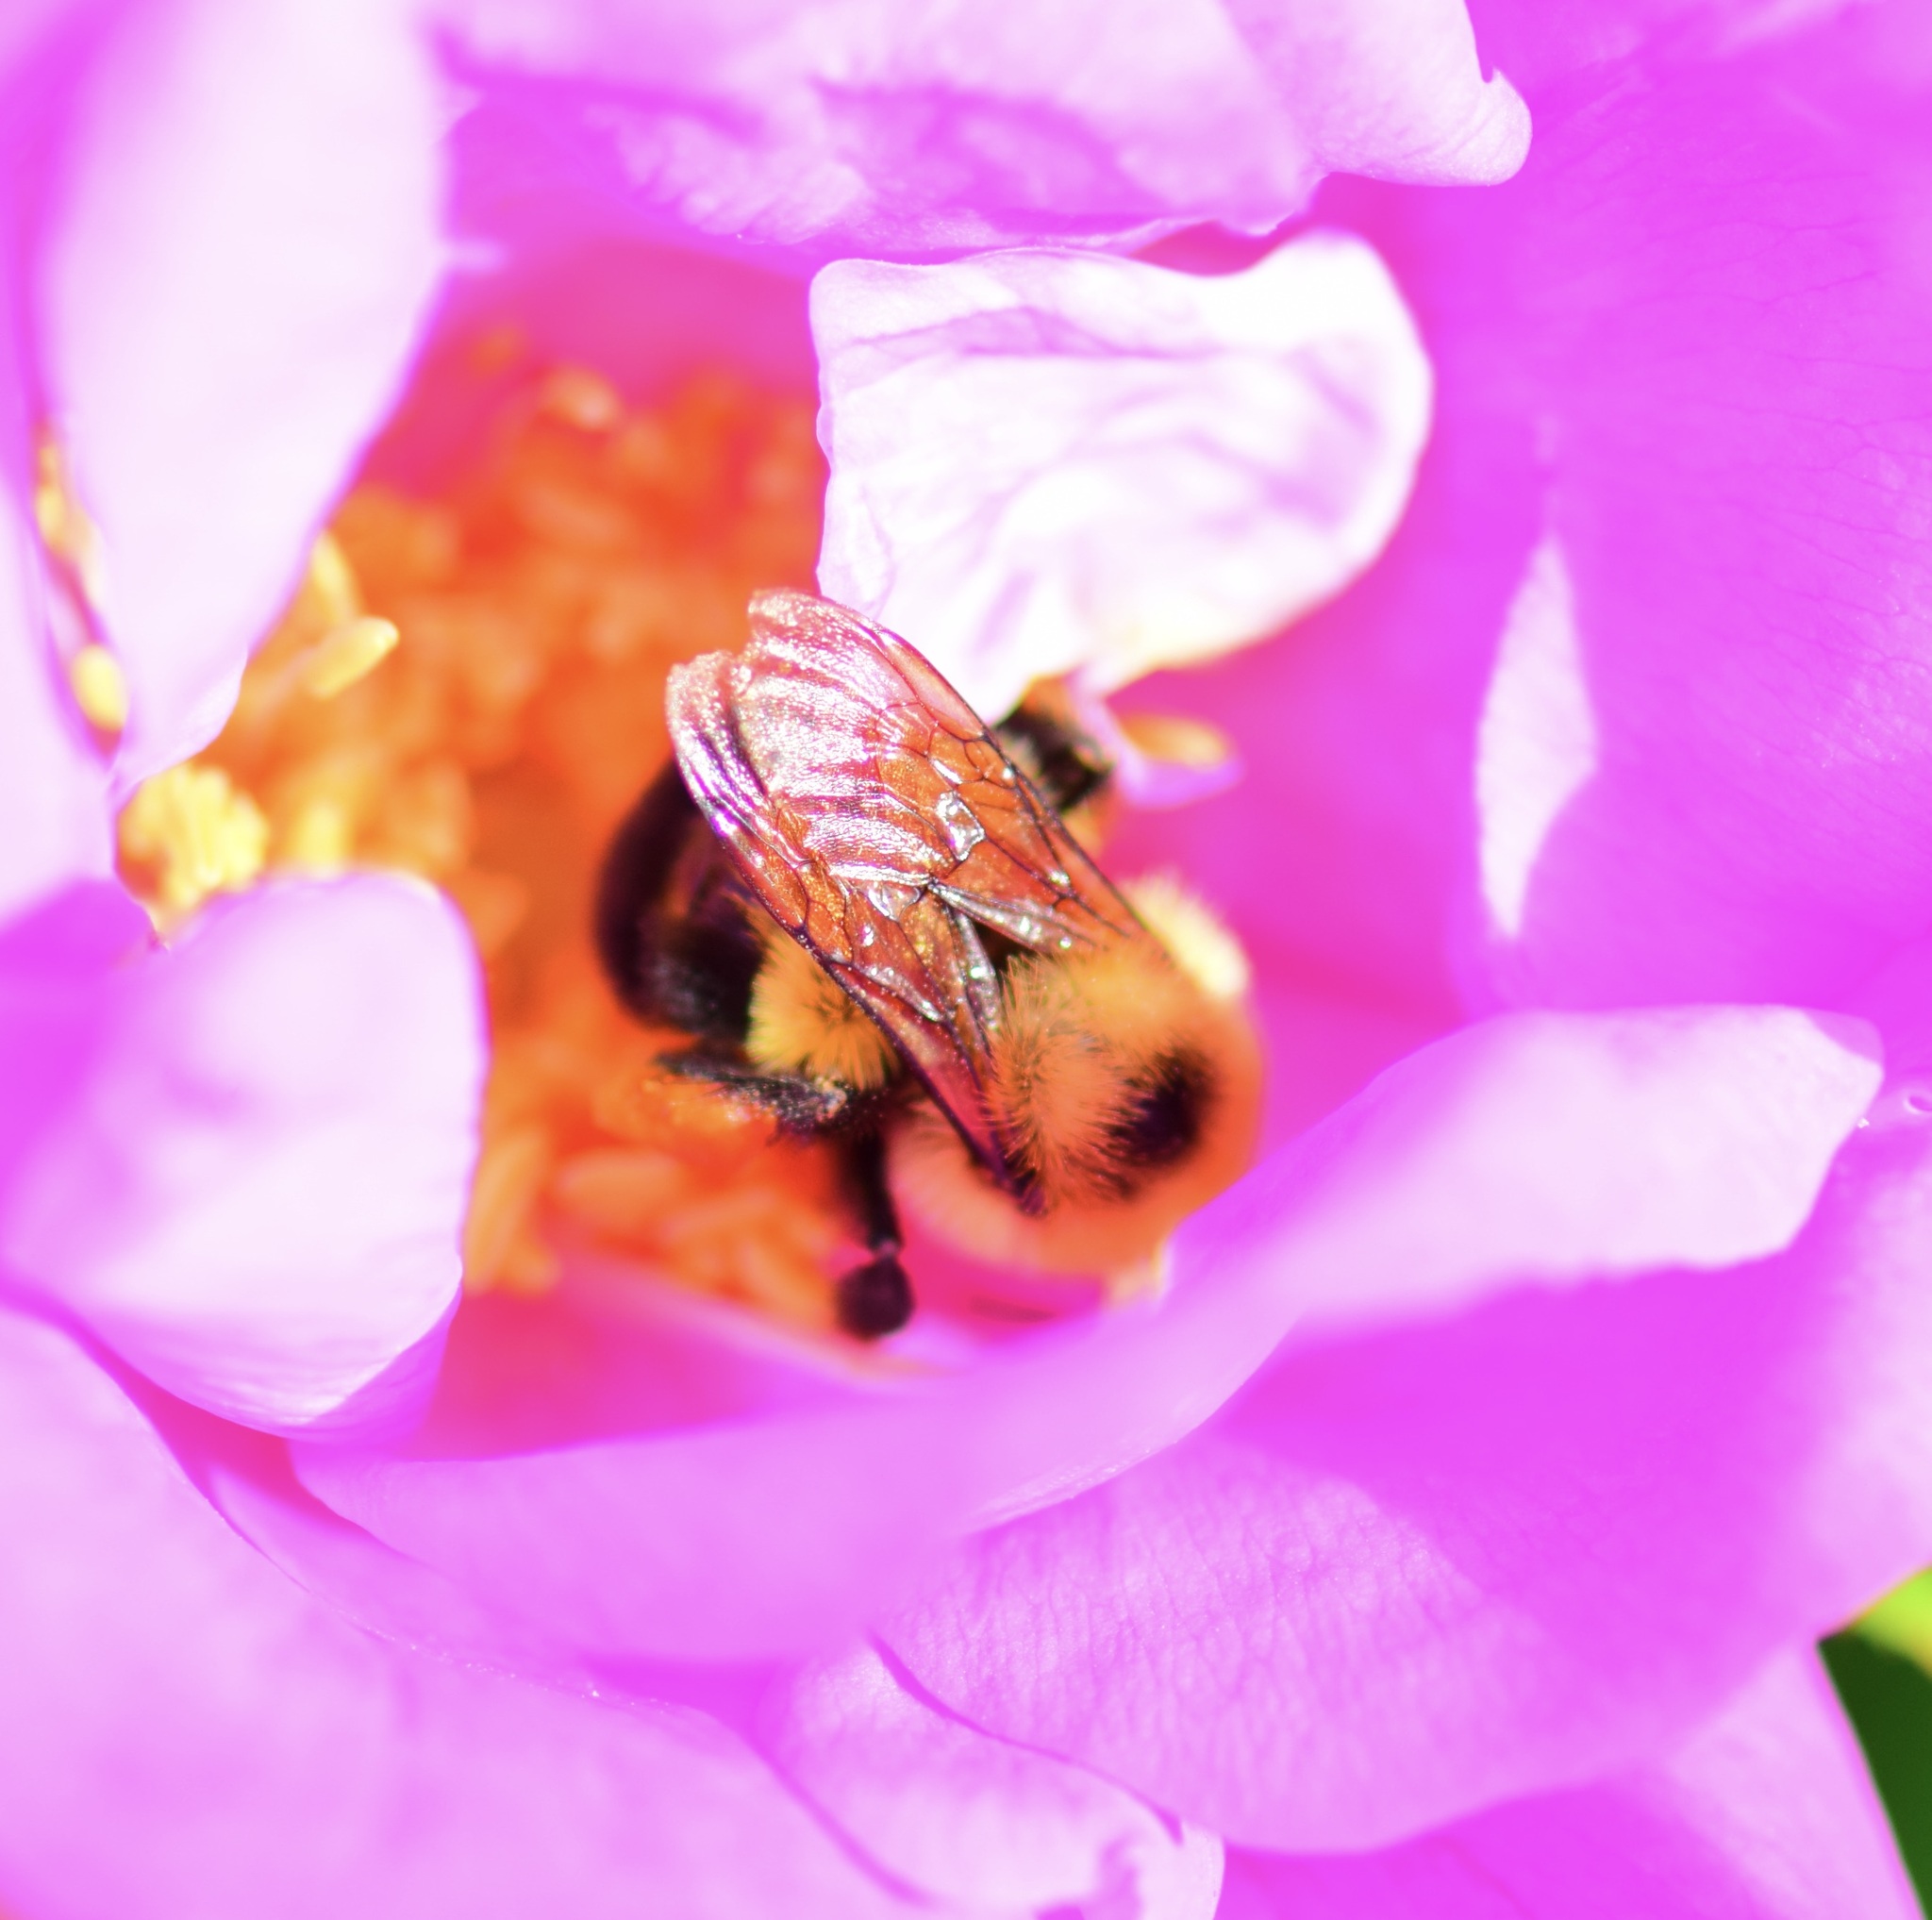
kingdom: Animalia
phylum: Arthropoda
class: Insecta
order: Hymenoptera
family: Apidae
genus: Bombus
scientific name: Bombus bimaculatus
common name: Two-spotted bumble bee
